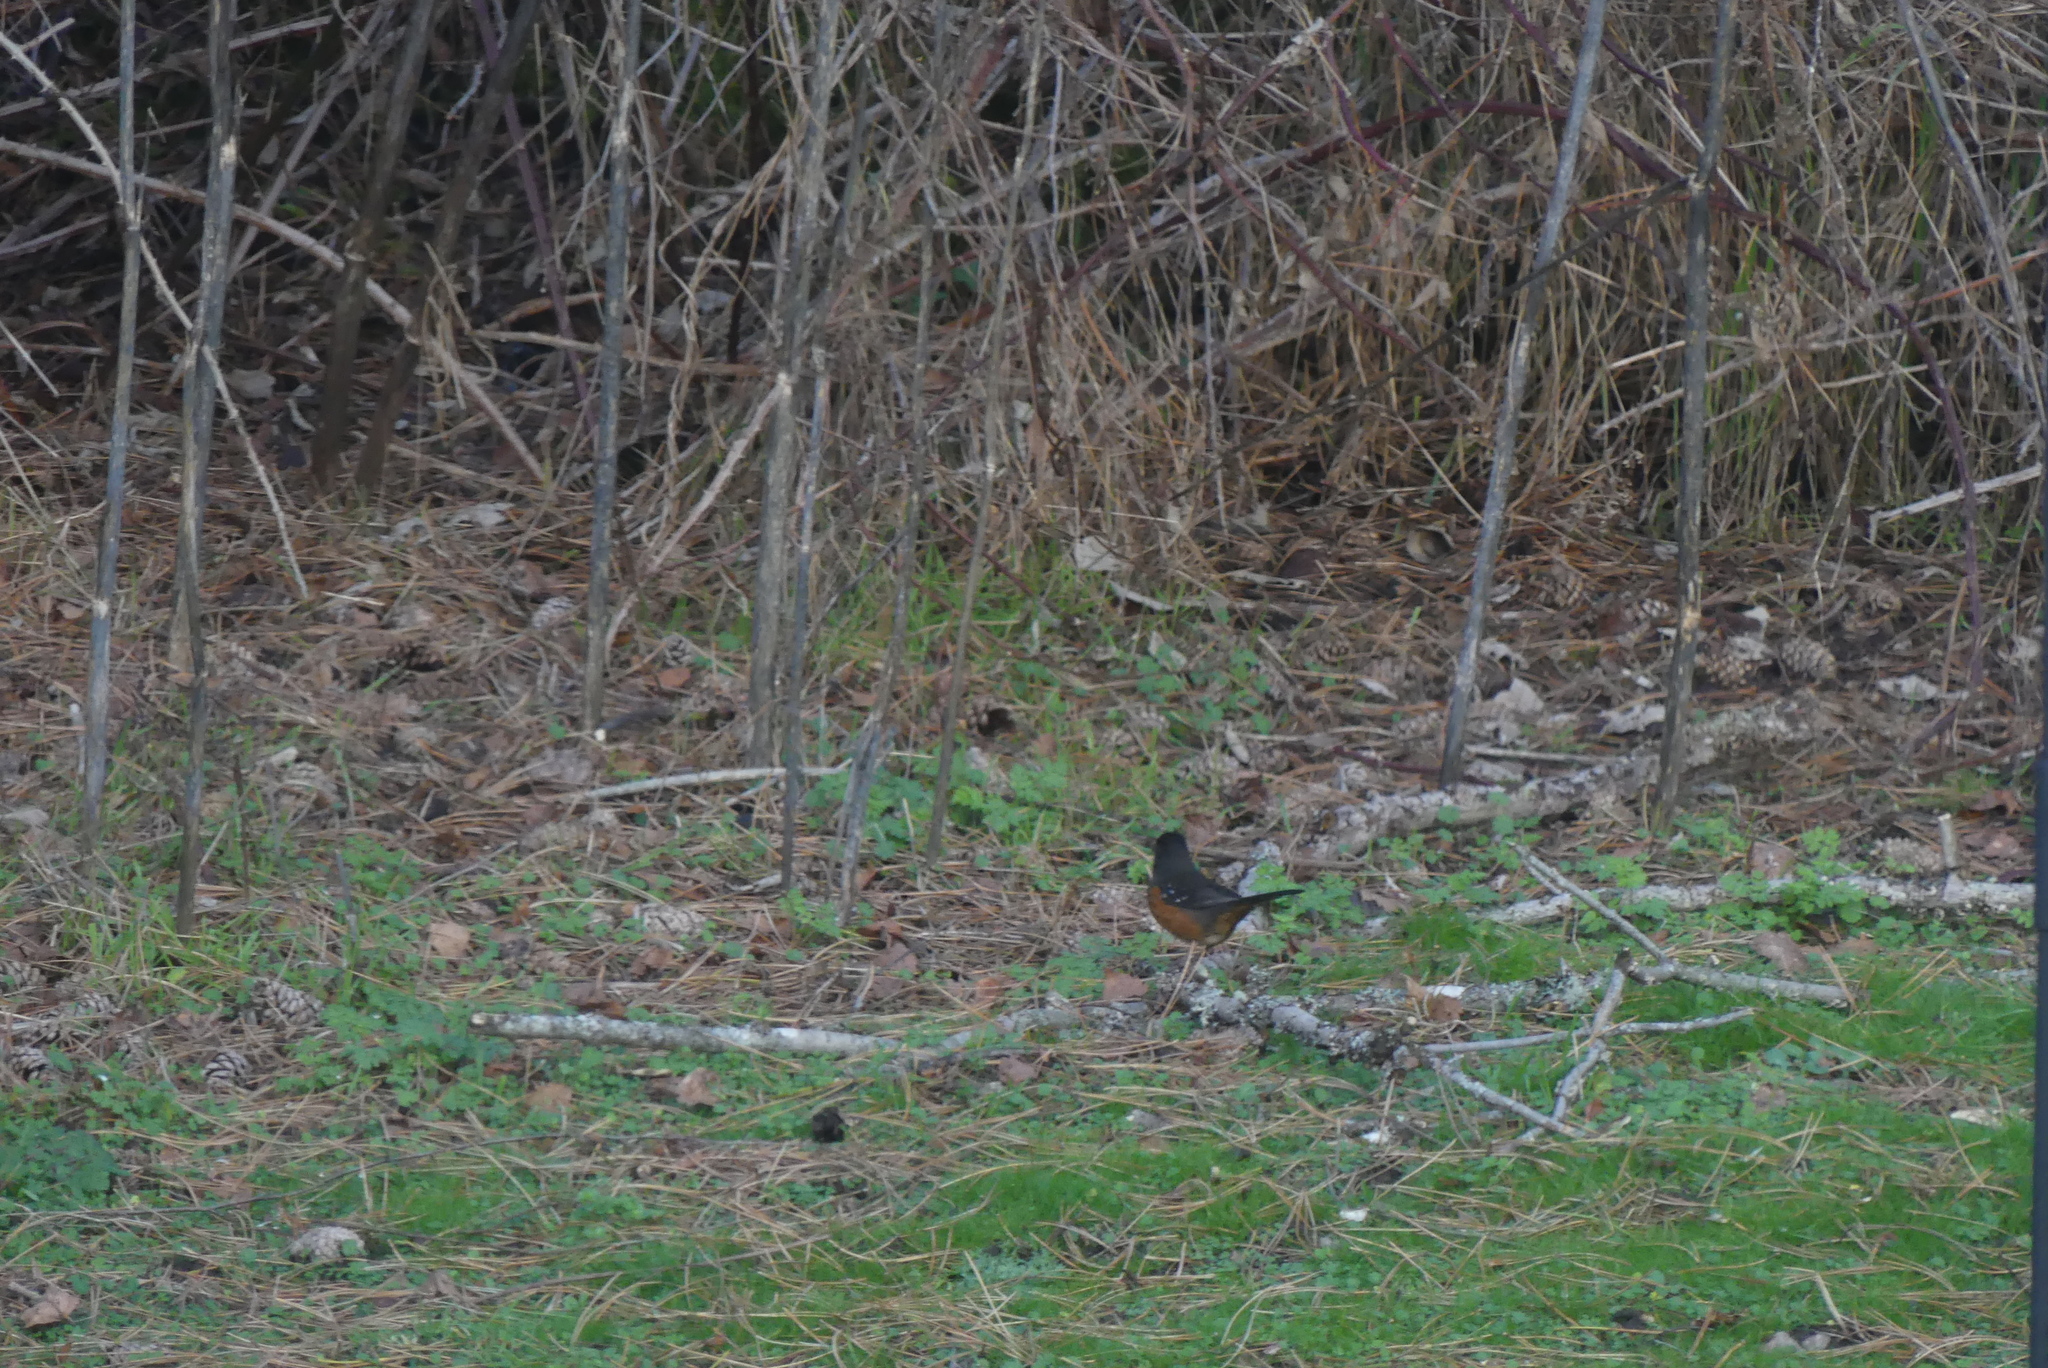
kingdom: Animalia
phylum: Chordata
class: Aves
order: Passeriformes
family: Passerellidae
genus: Pipilo
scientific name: Pipilo maculatus
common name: Spotted towhee
